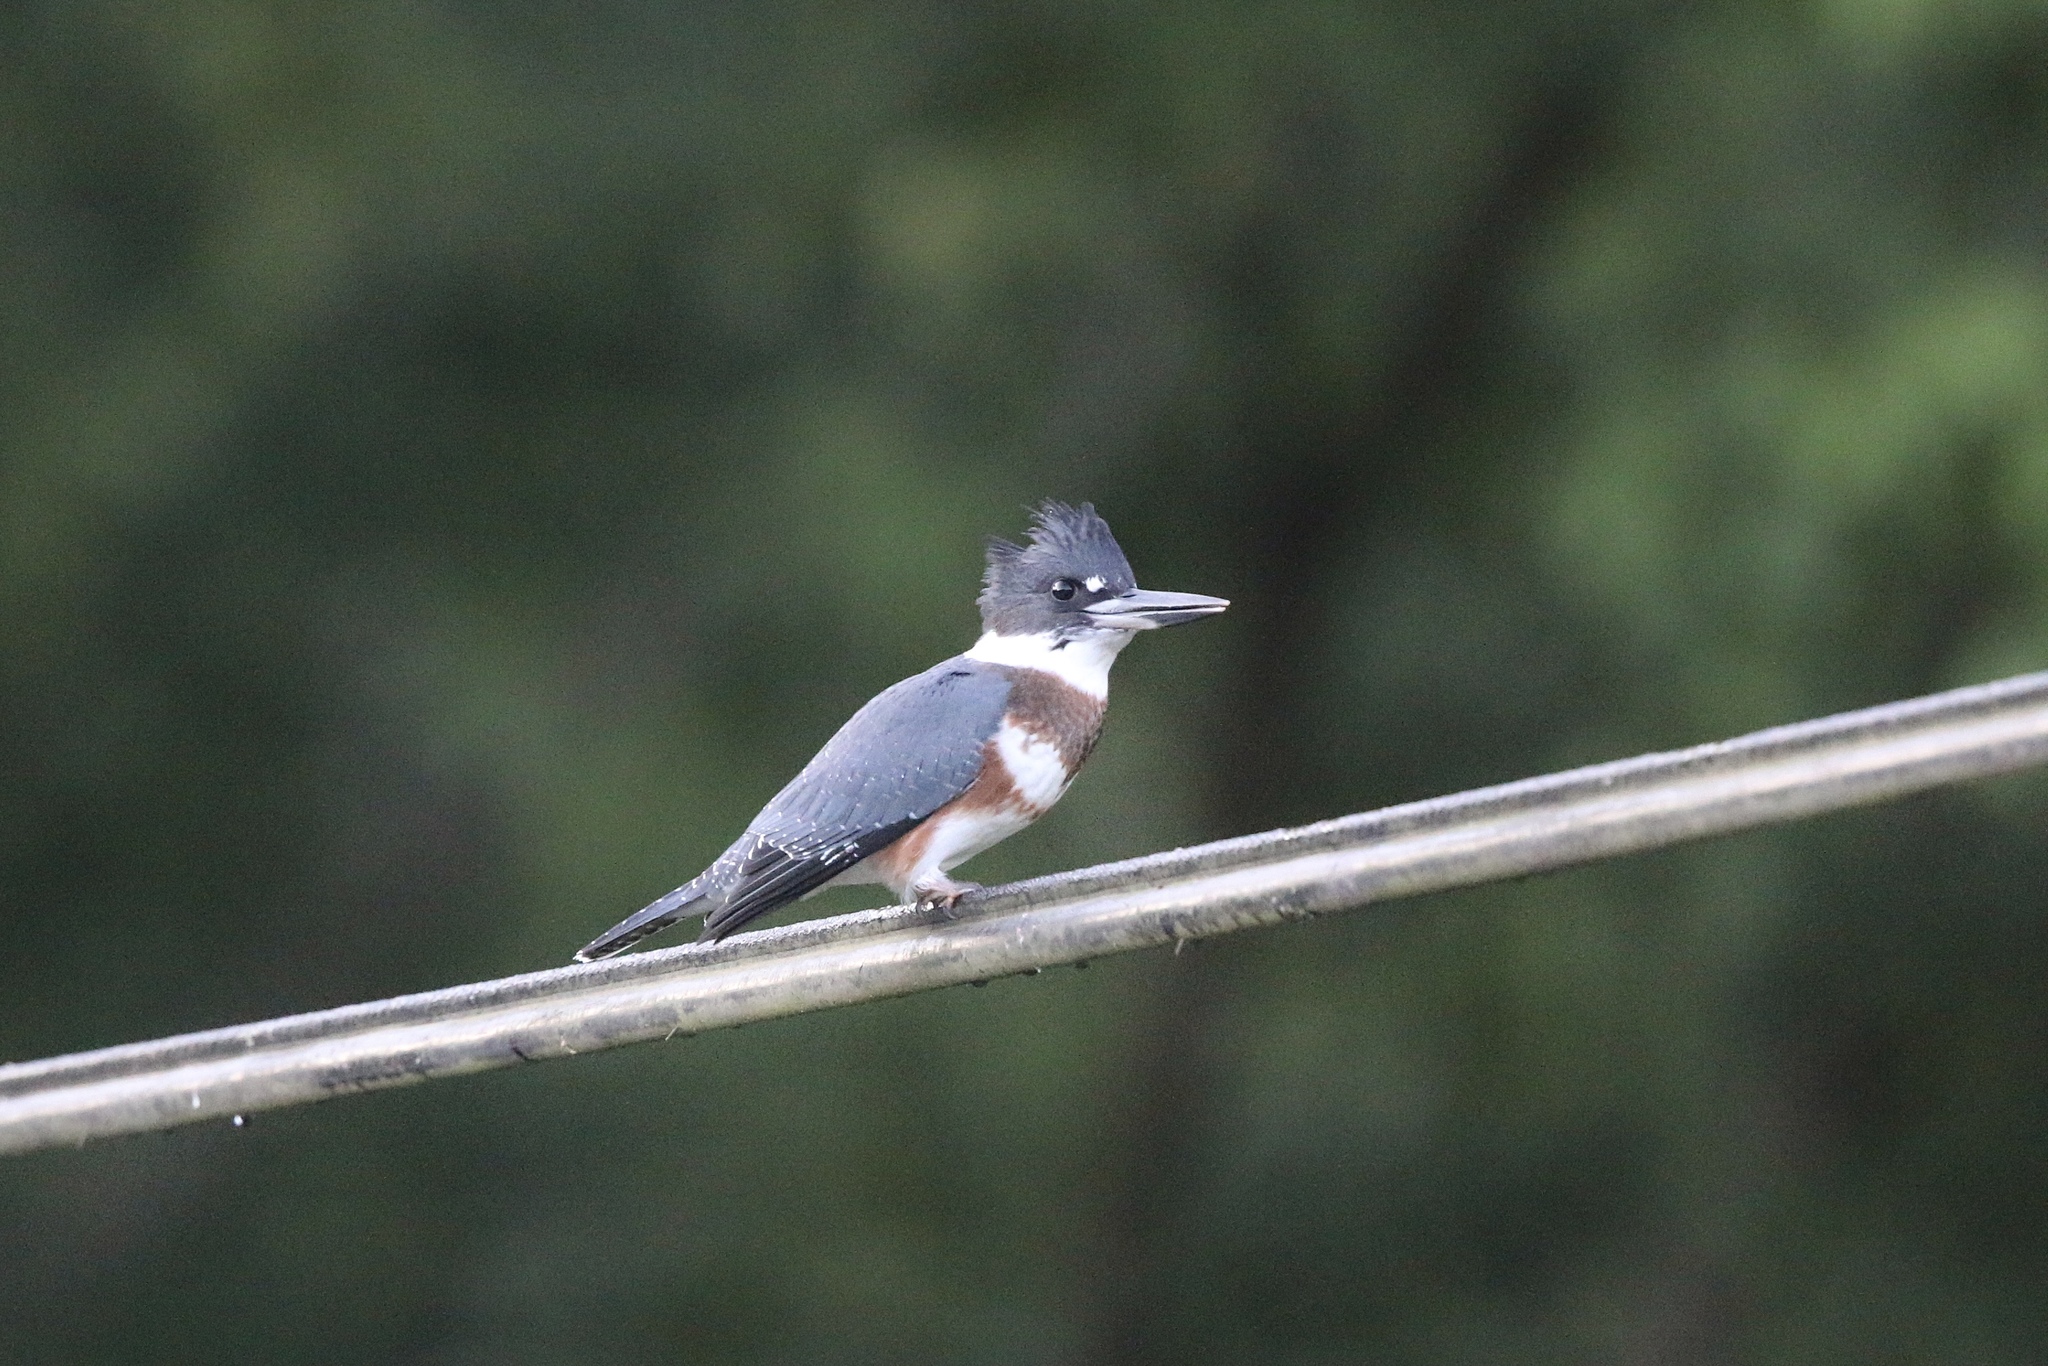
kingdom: Animalia
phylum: Chordata
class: Aves
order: Coraciiformes
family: Alcedinidae
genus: Megaceryle
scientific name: Megaceryle alcyon
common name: Belted kingfisher
